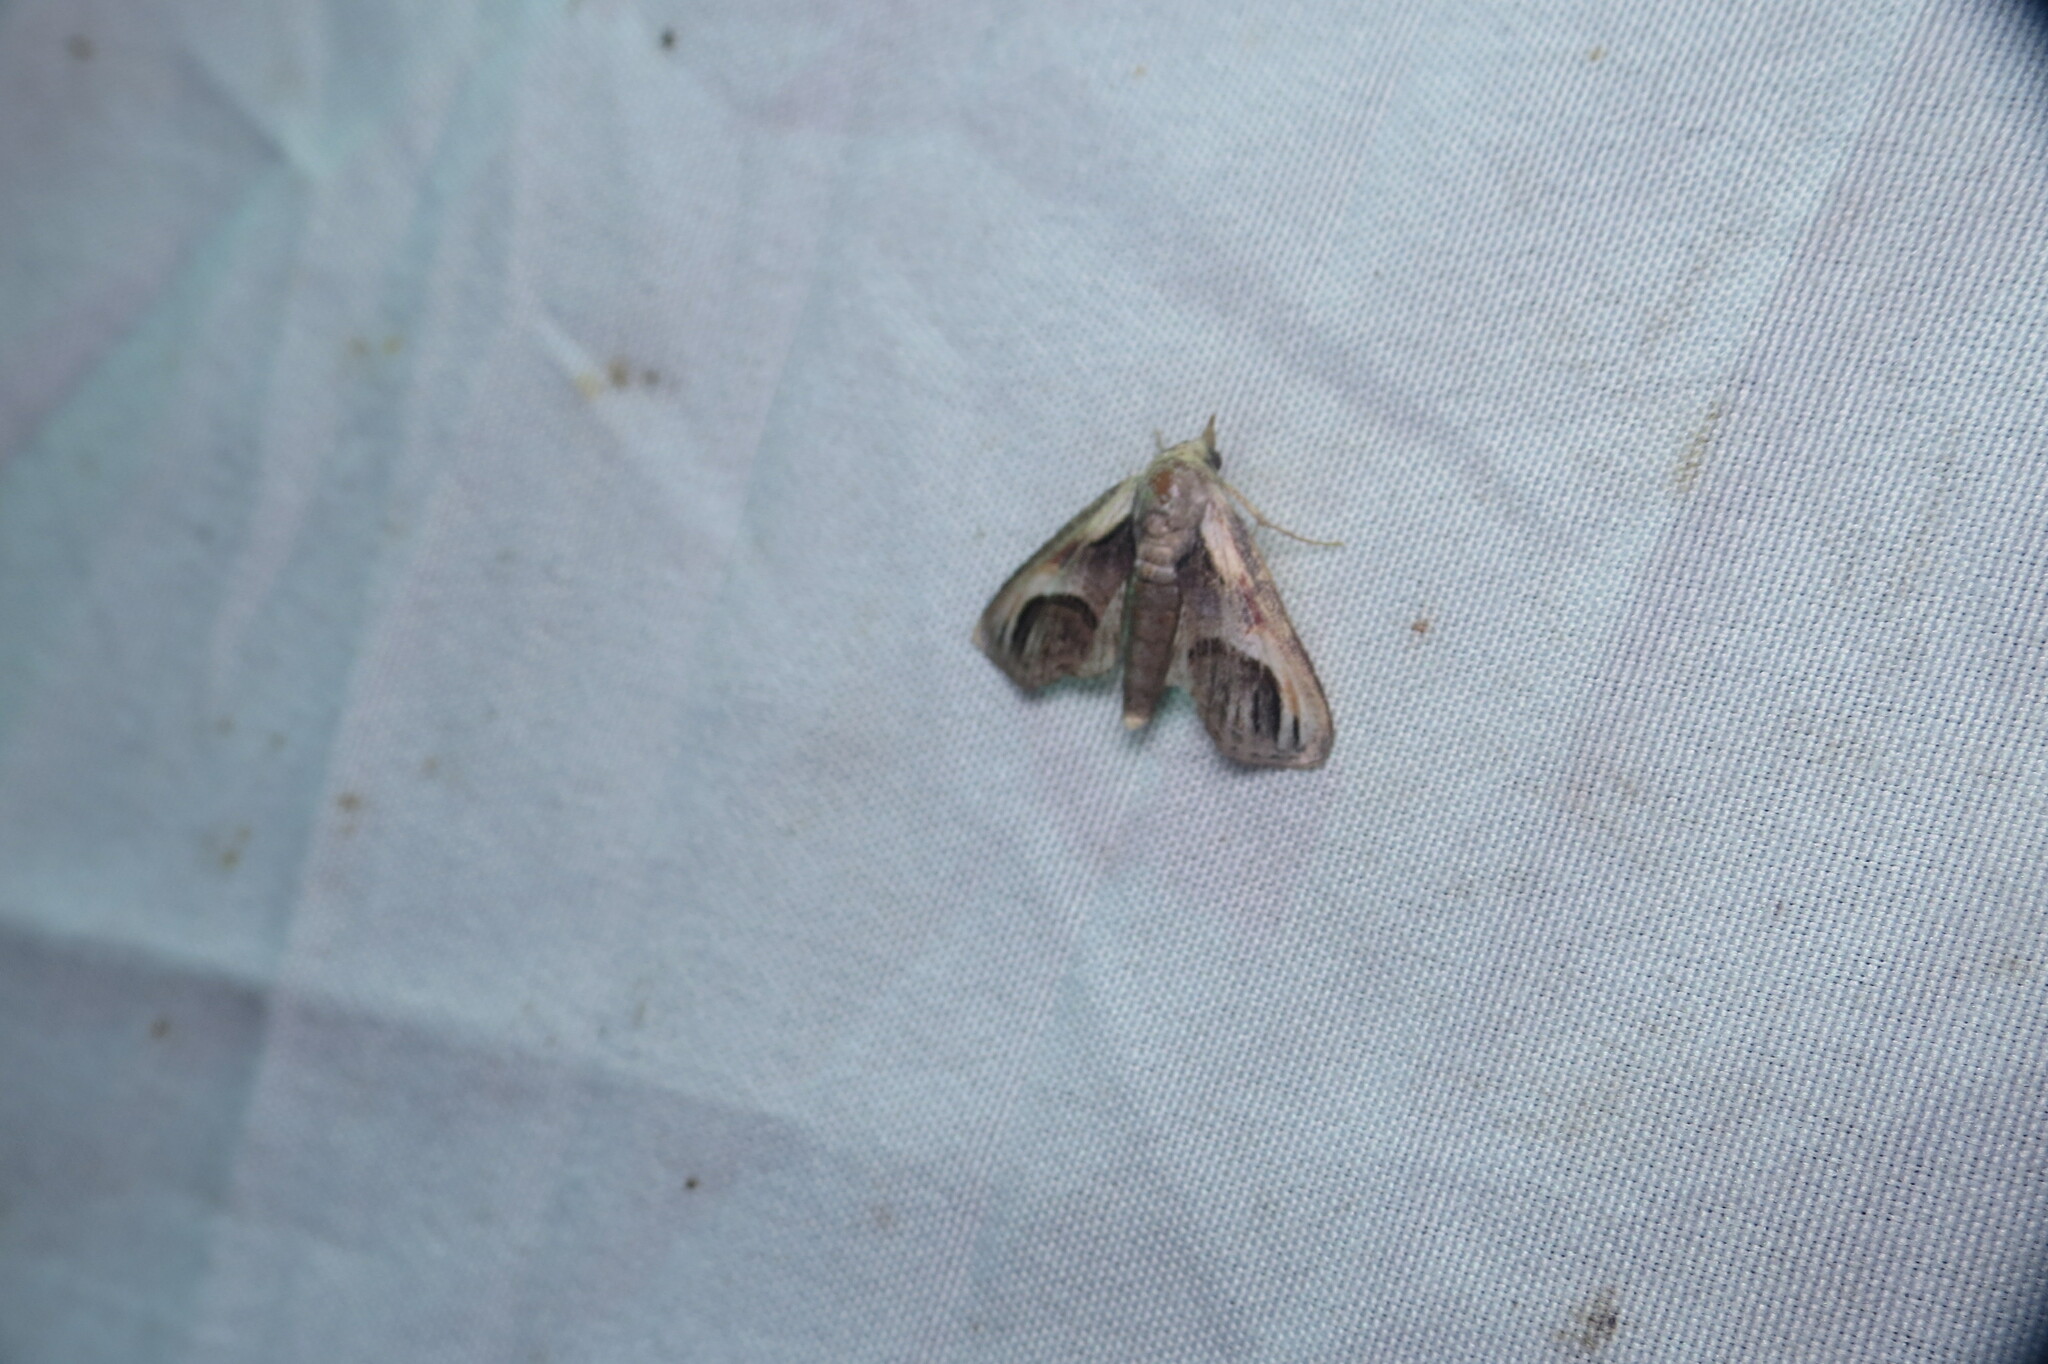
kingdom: Animalia
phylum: Arthropoda
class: Insecta
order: Lepidoptera
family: Euteliidae
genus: Paectes
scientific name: Paectes oculatrix
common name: Eyed paectes moth
